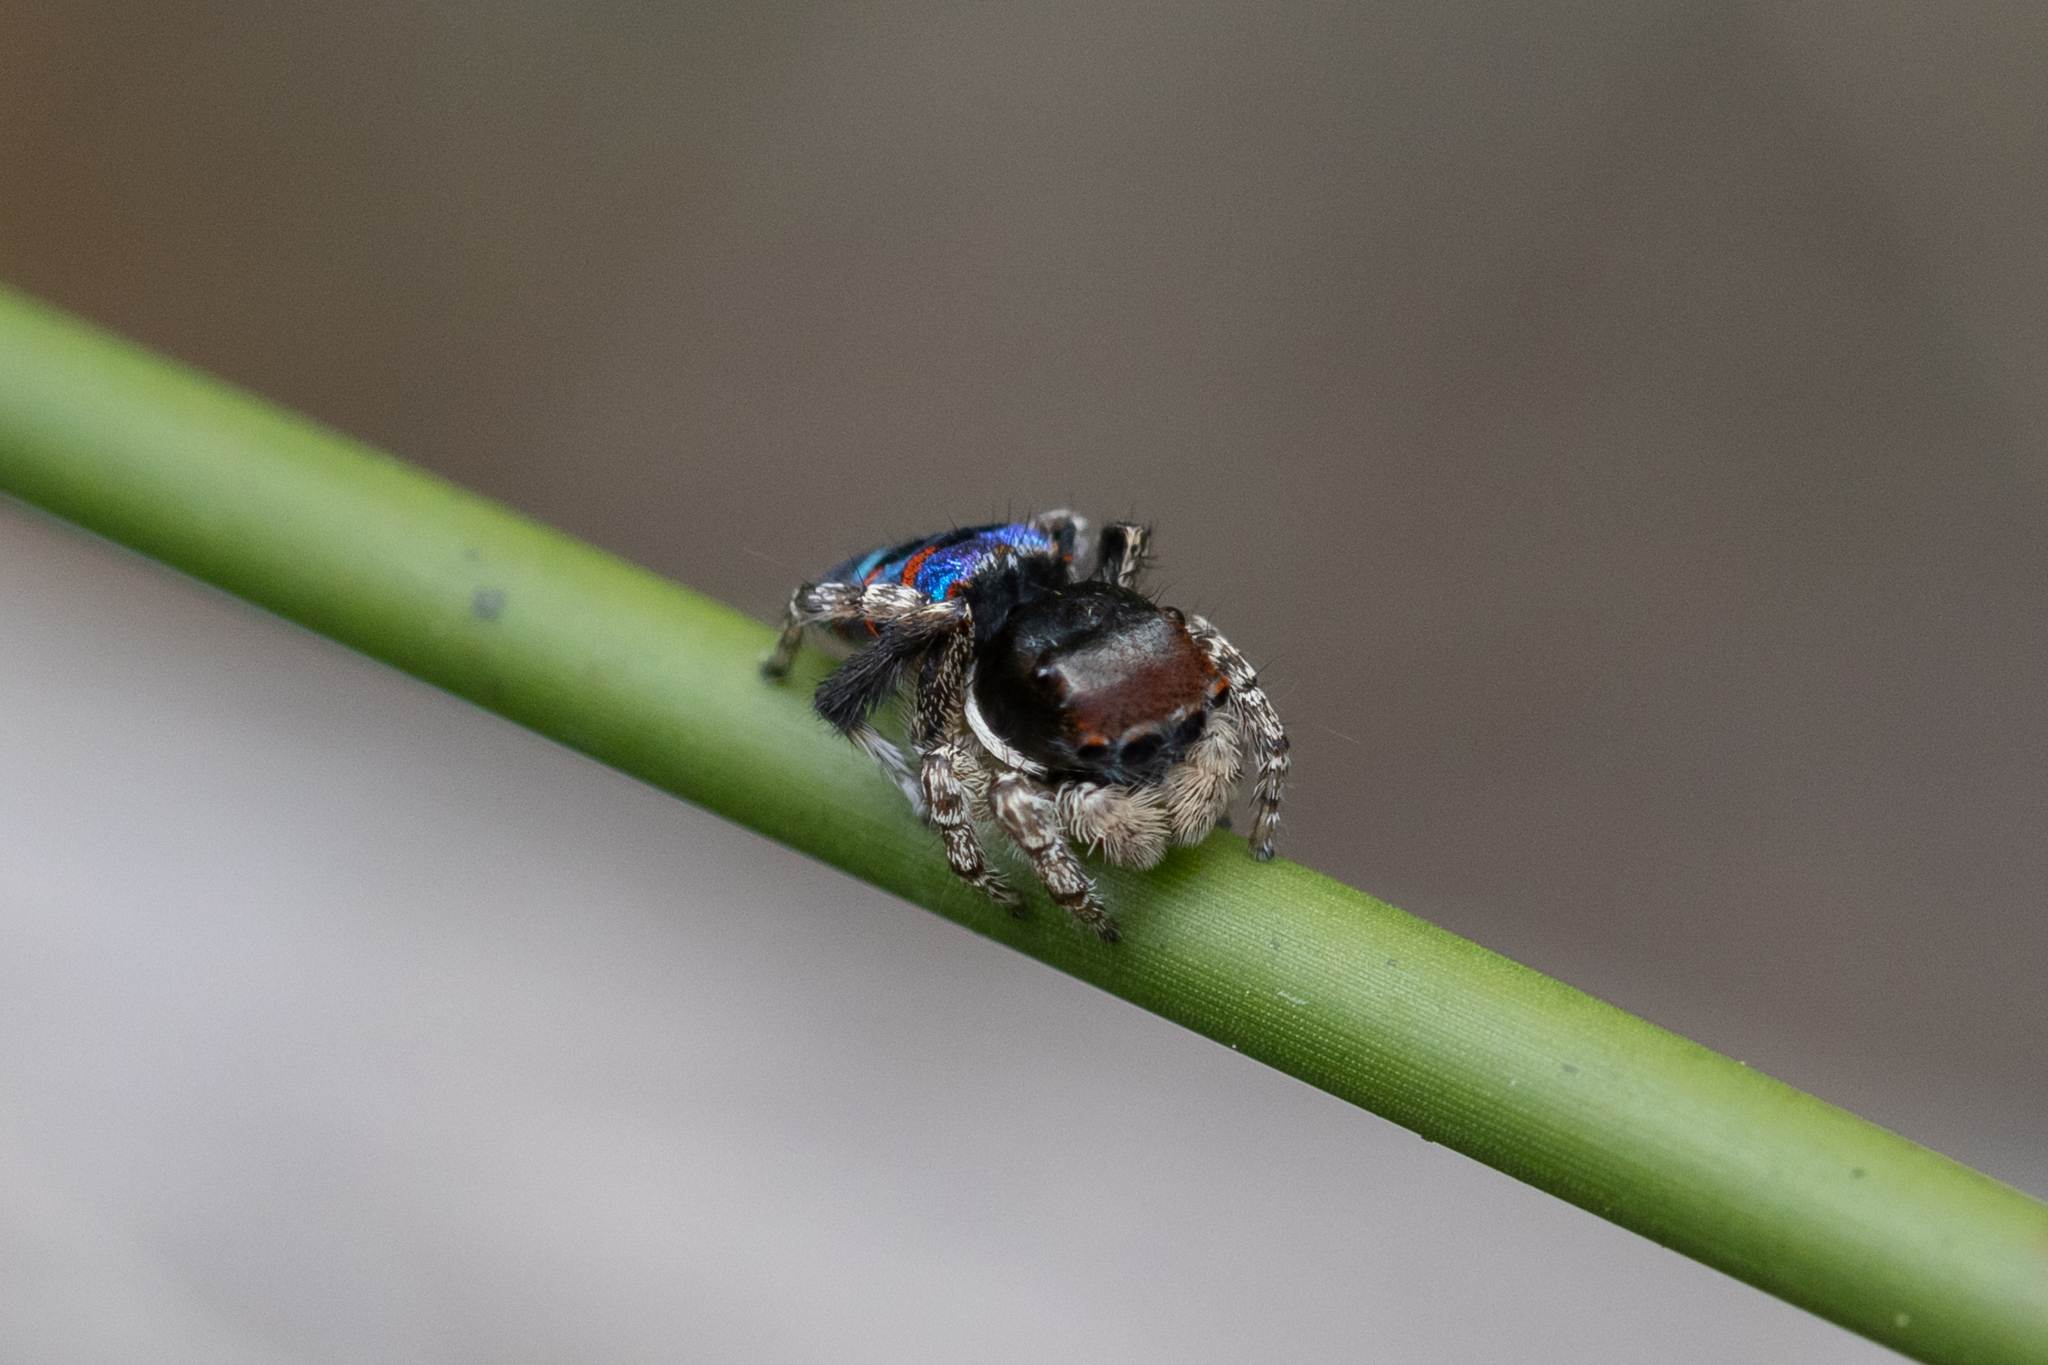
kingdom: Animalia
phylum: Arthropoda
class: Arachnida
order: Araneae
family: Salticidae
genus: Maratus
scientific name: Maratus karrie
